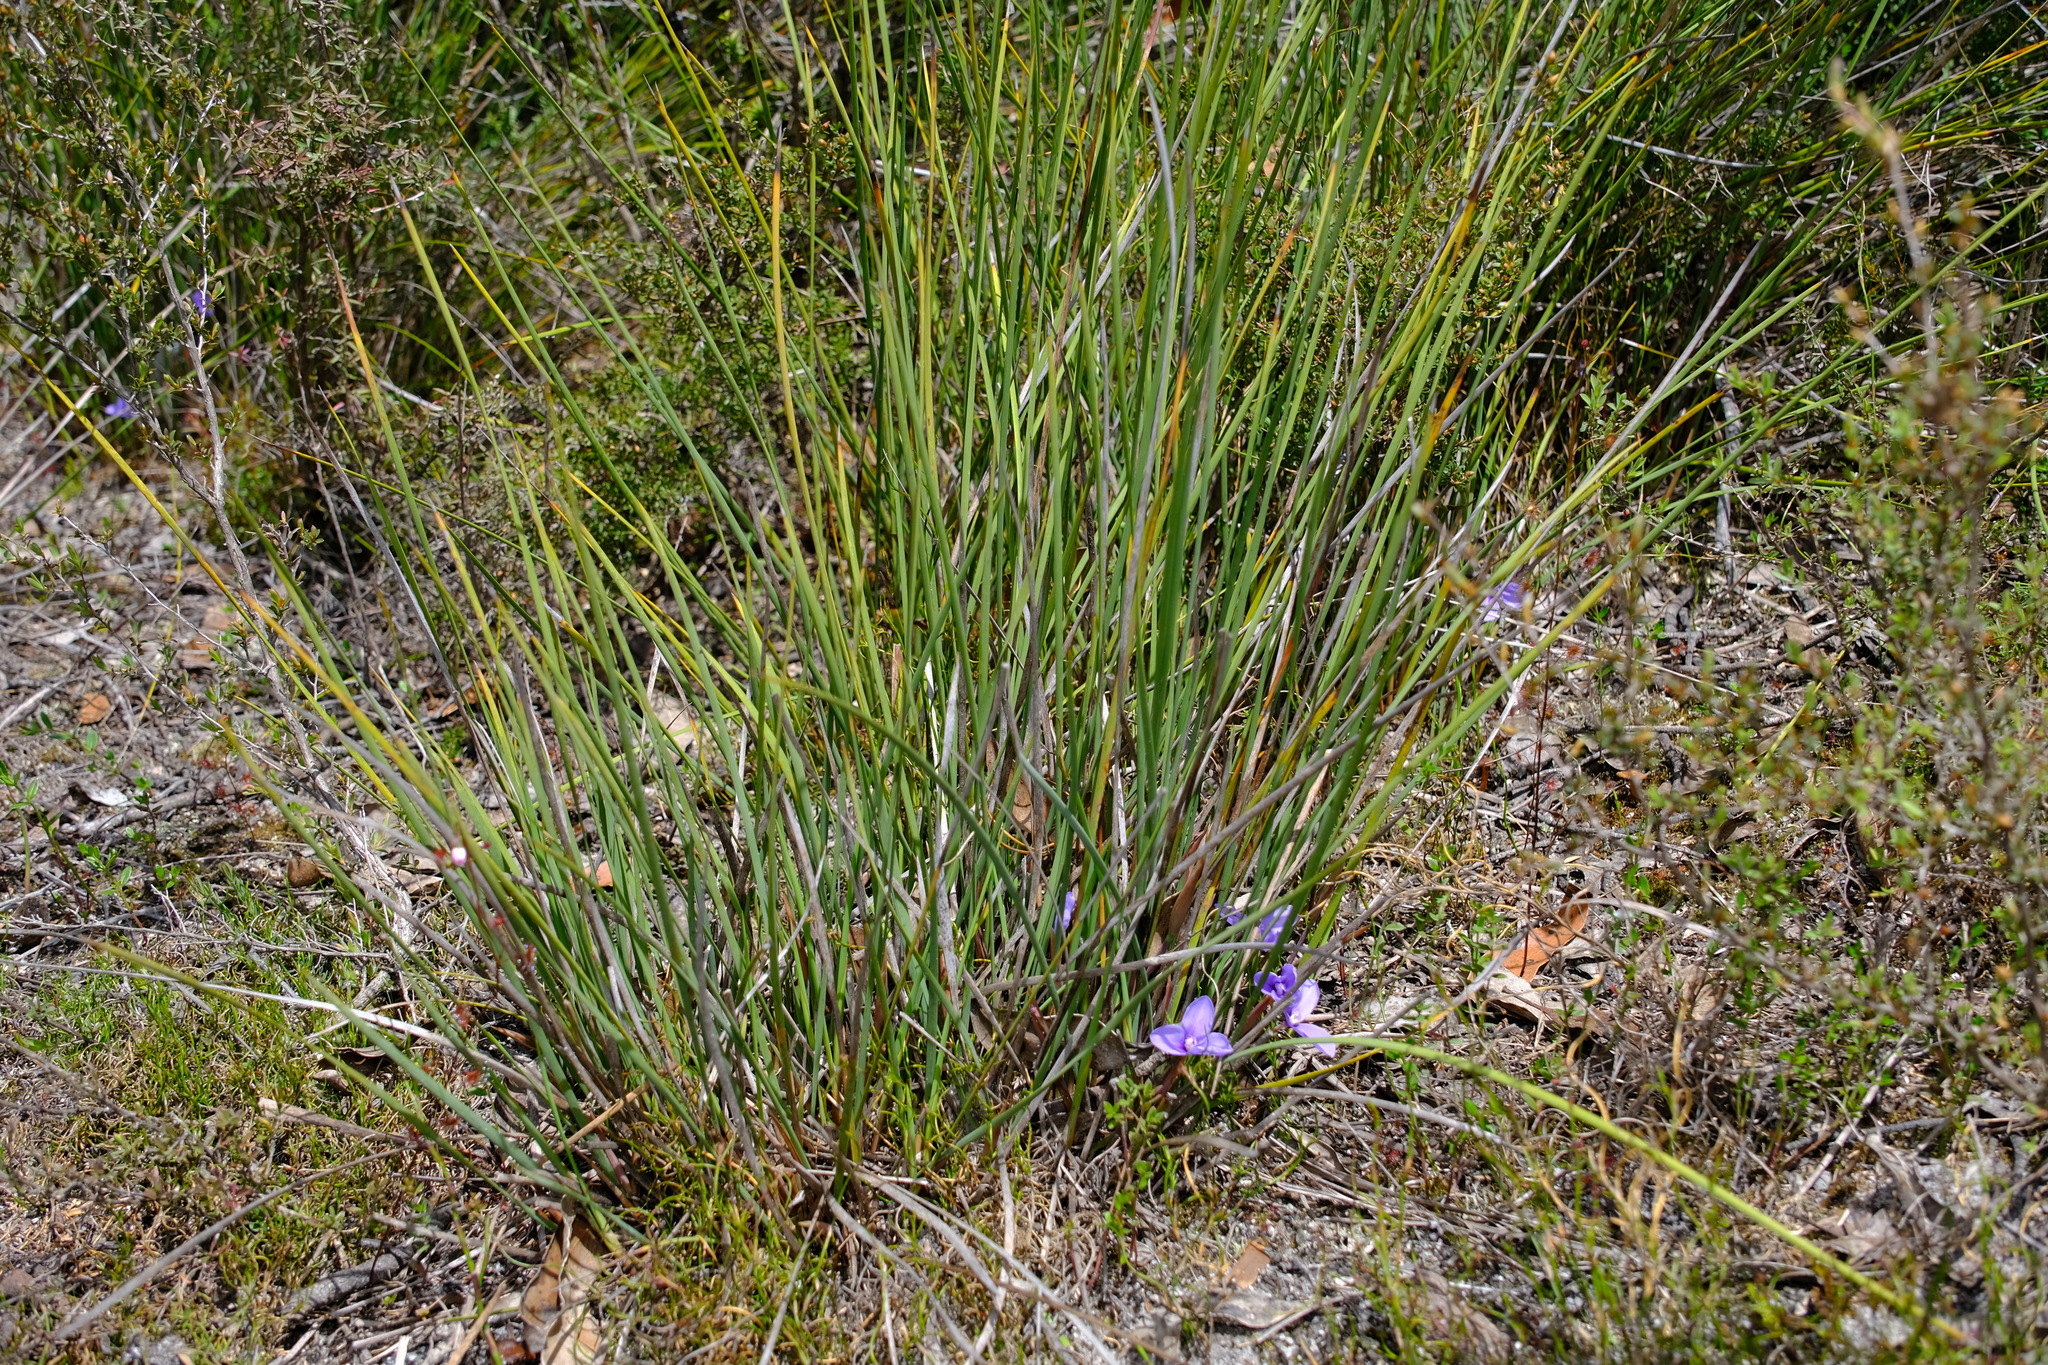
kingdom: Plantae
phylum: Tracheophyta
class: Liliopsida
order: Asparagales
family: Iridaceae
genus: Patersonia
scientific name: Patersonia fragilis
